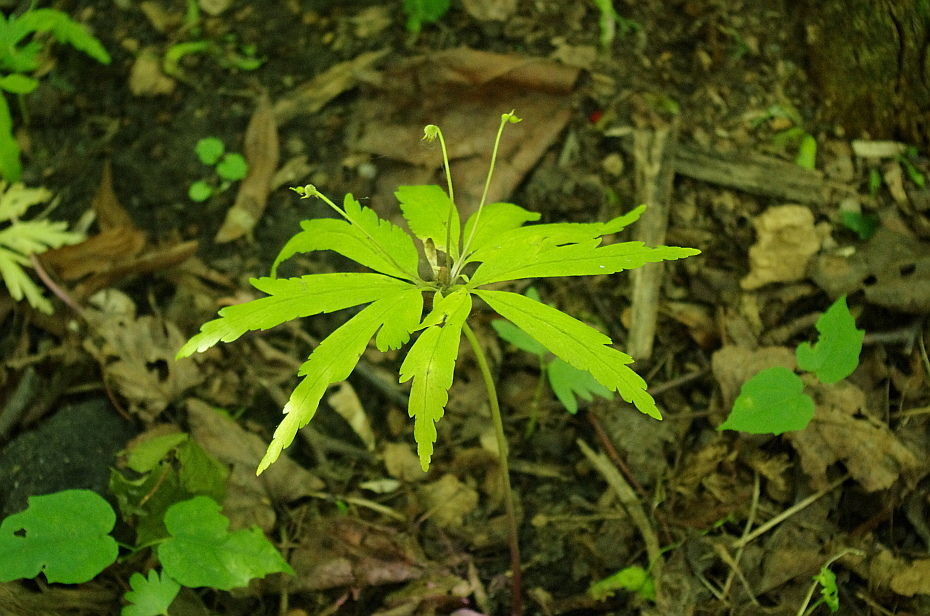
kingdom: Plantae
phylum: Tracheophyta
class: Magnoliopsida
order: Ranunculales
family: Ranunculaceae
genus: Anemone
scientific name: Anemone ranunculoides
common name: Yellow anemone
